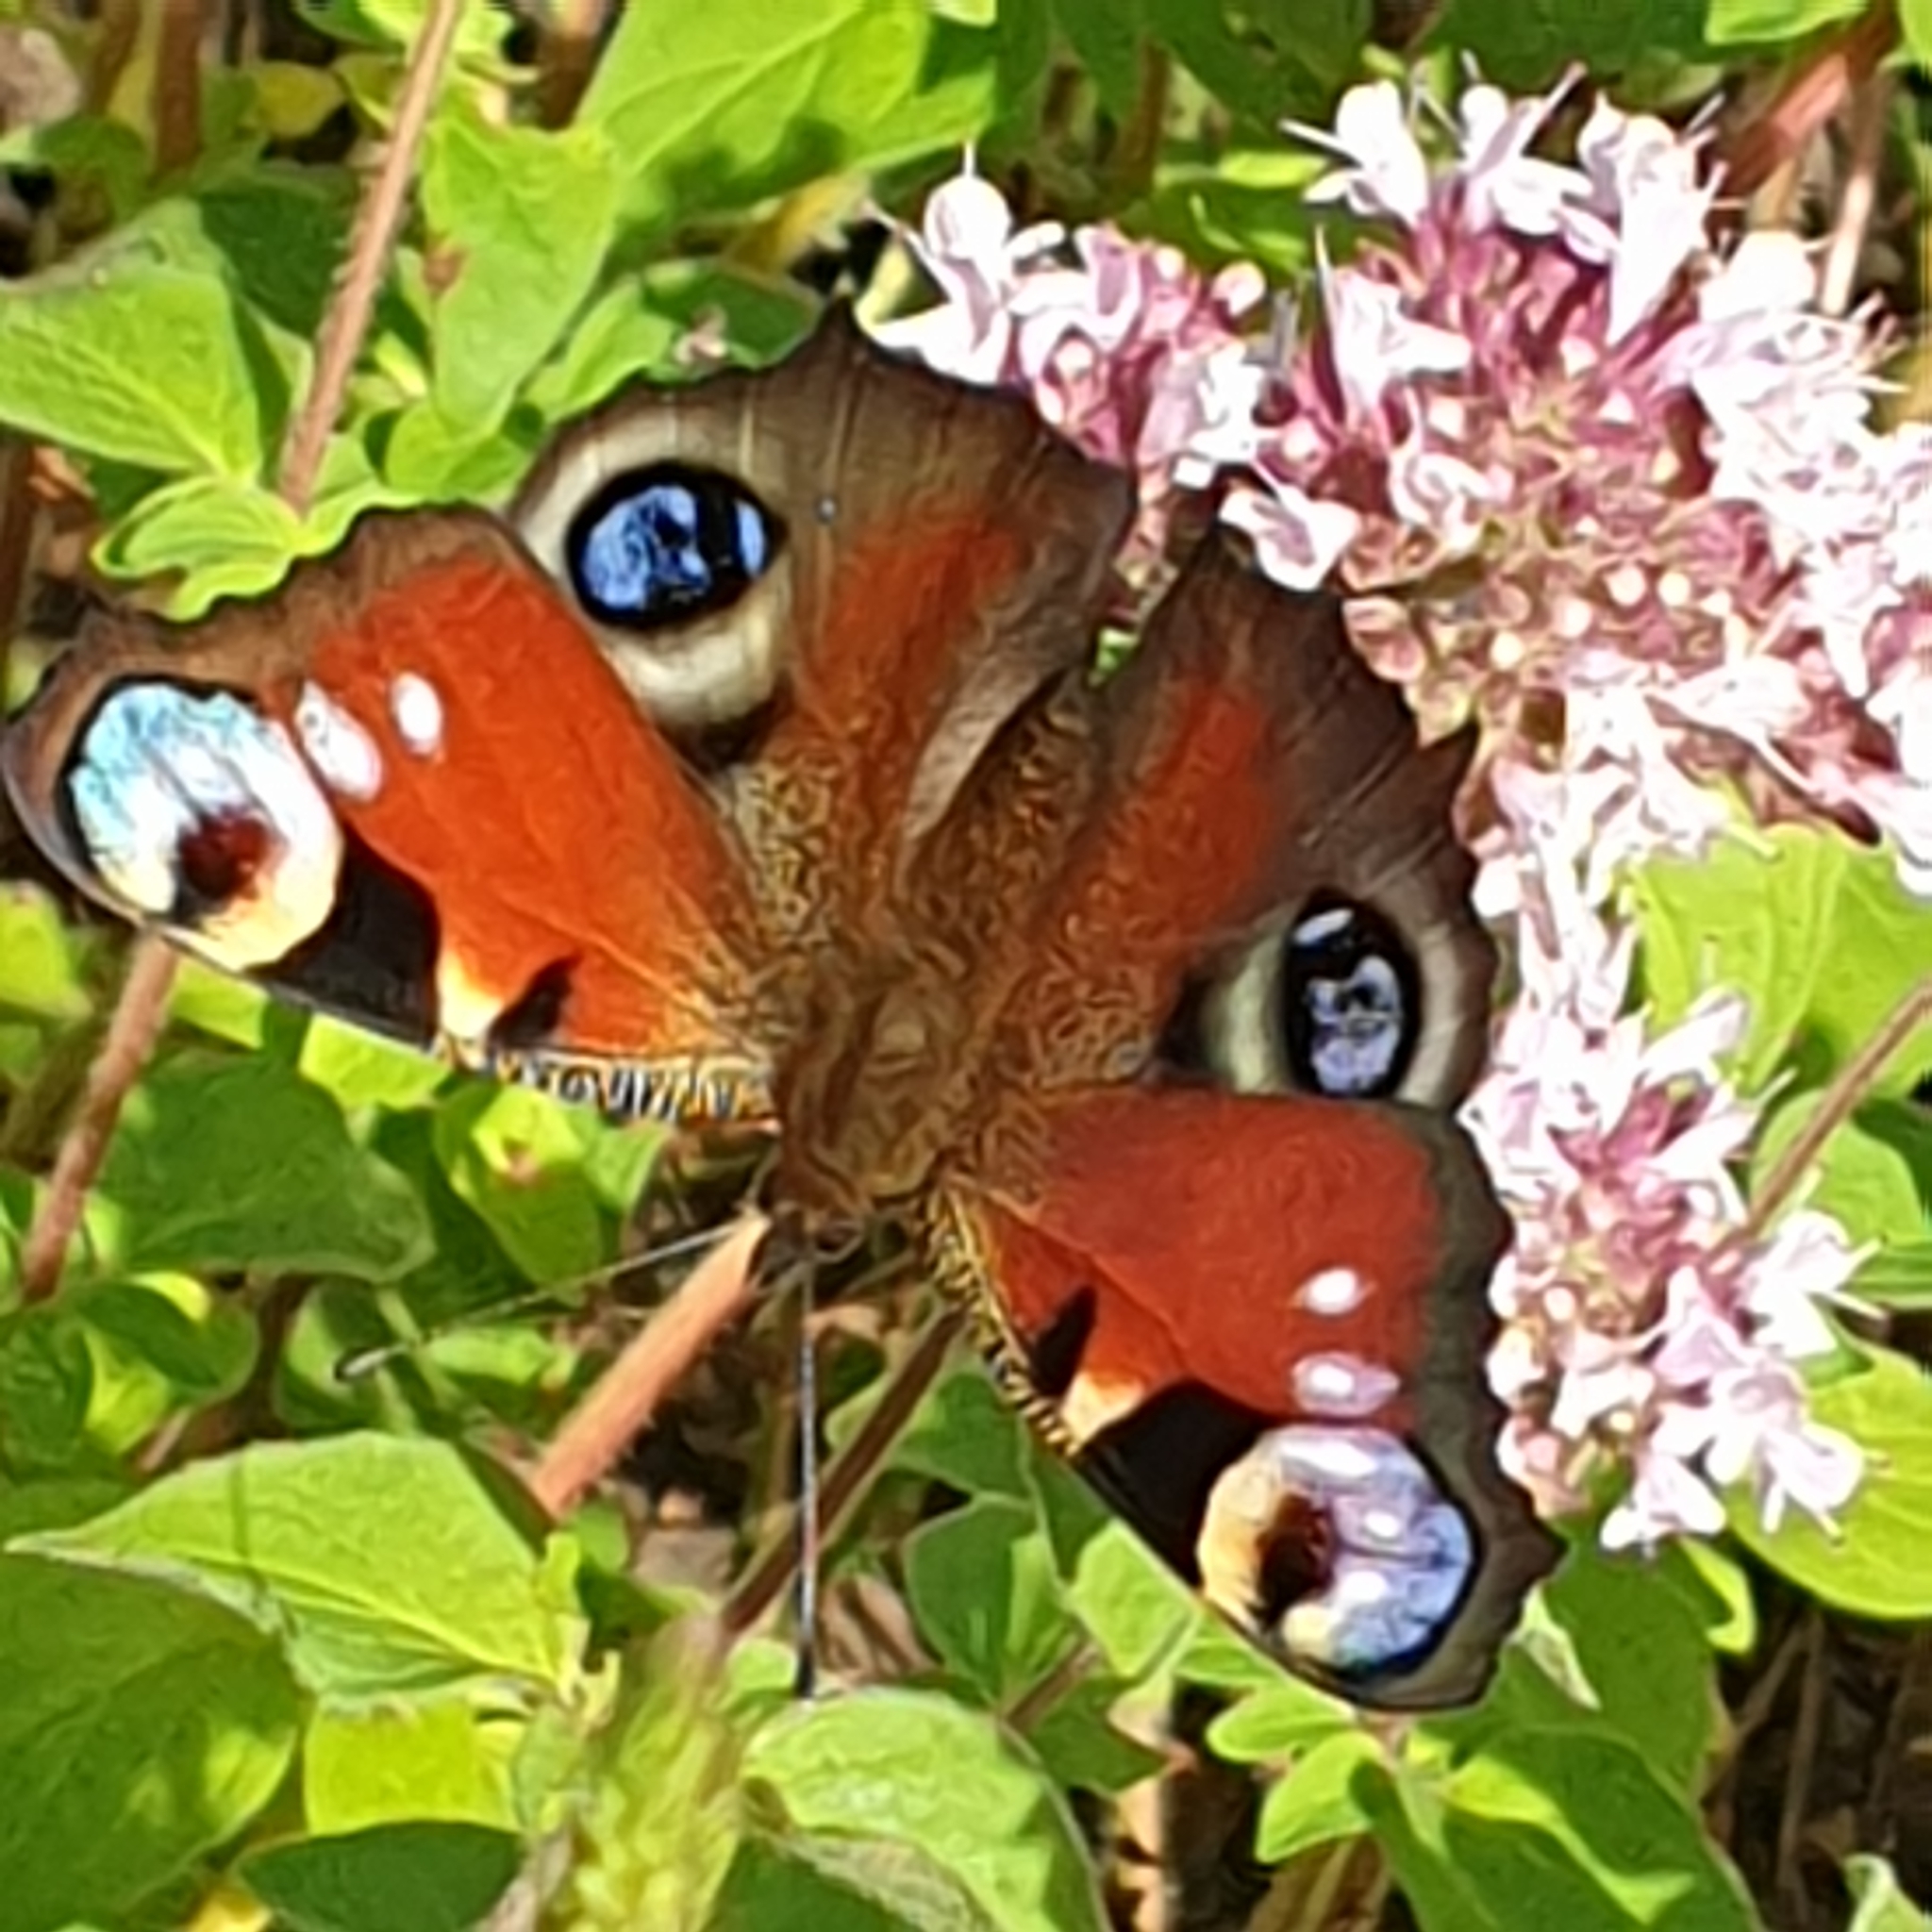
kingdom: Animalia
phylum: Arthropoda
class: Insecta
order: Lepidoptera
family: Nymphalidae
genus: Aglais
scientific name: Aglais io
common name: Peacock
